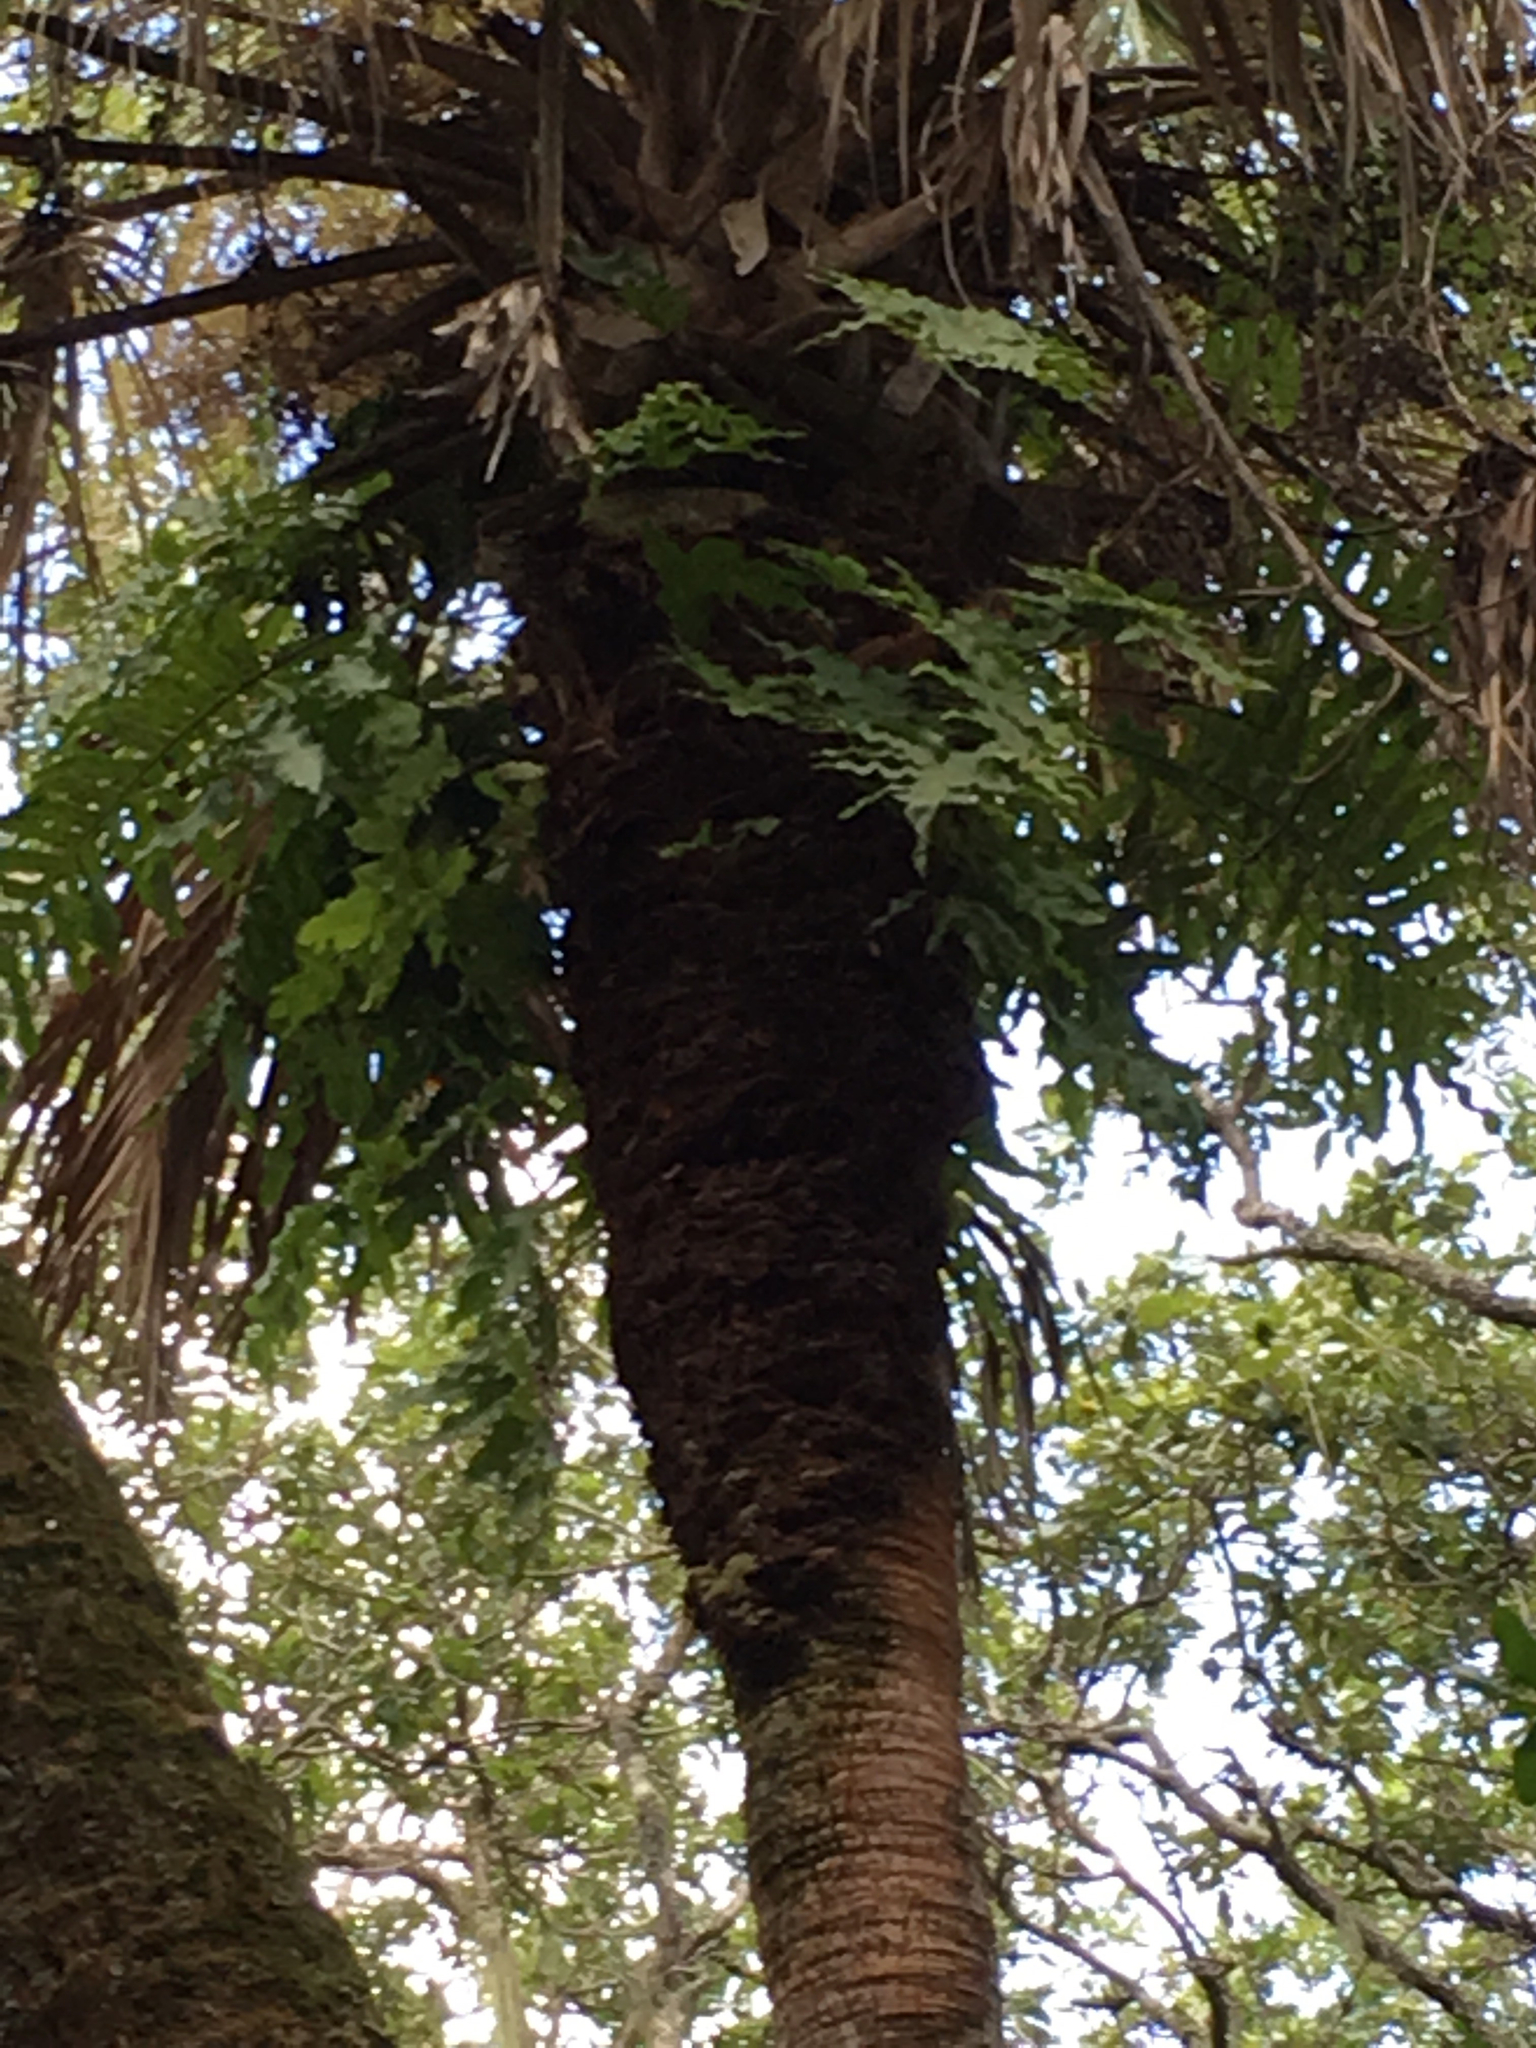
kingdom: Plantae
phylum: Tracheophyta
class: Polypodiopsida
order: Polypodiales
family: Polypodiaceae
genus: Phlebodium
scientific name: Phlebodium aureum
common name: Gold-foot fern
